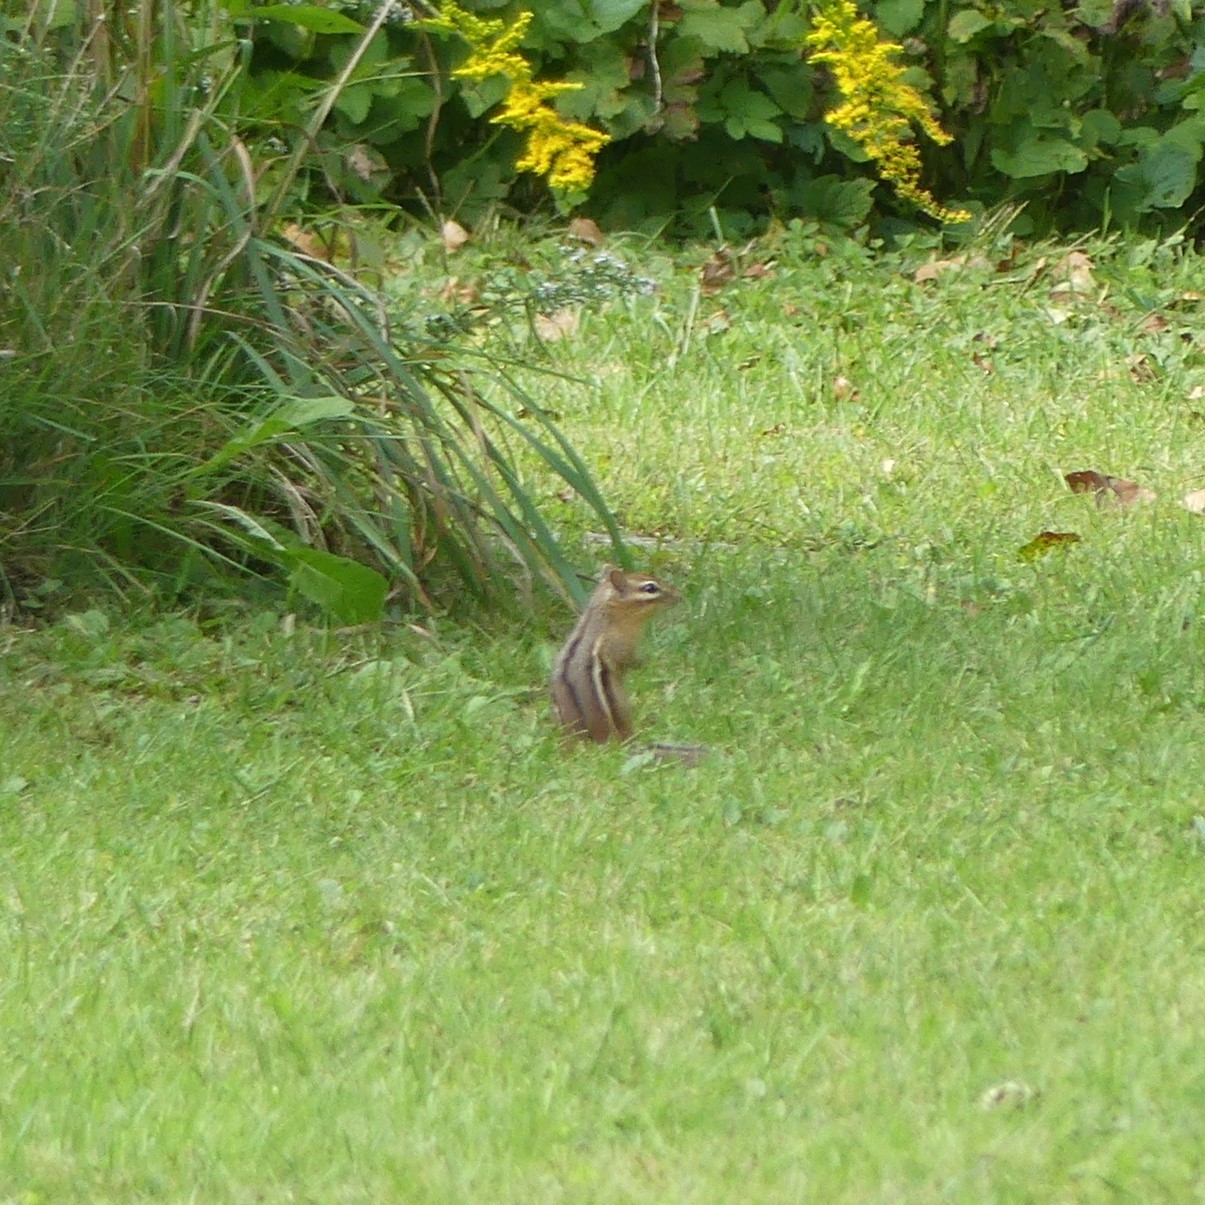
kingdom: Animalia
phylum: Chordata
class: Mammalia
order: Rodentia
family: Sciuridae
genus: Tamias
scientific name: Tamias striatus
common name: Eastern chipmunk
